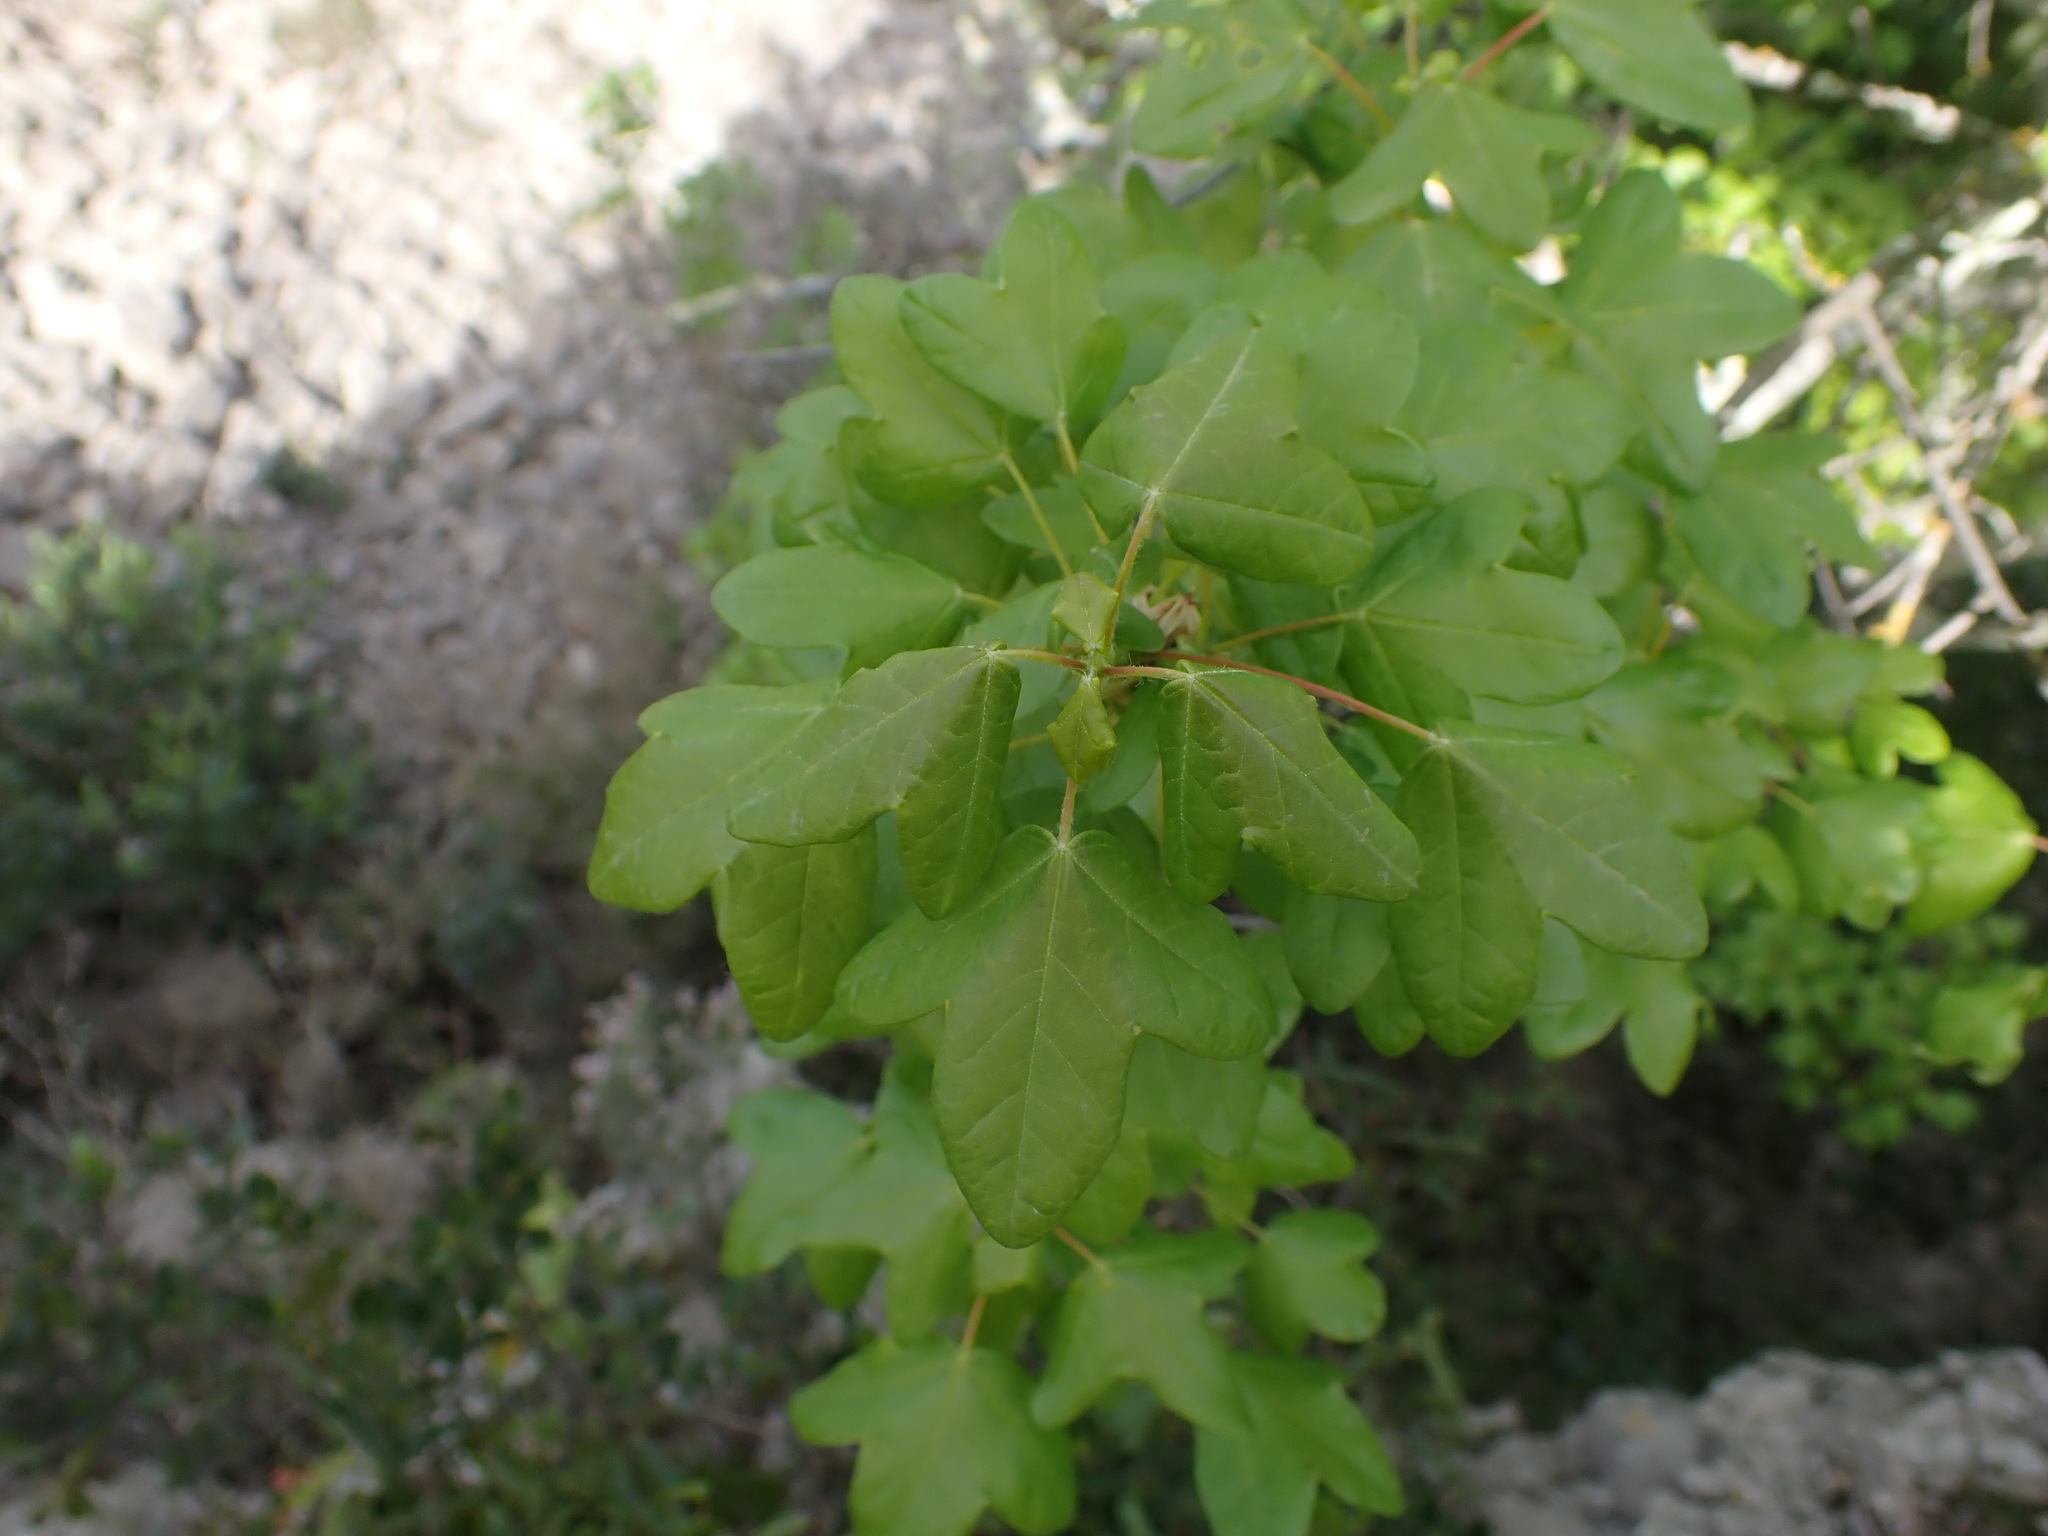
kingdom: Plantae
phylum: Tracheophyta
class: Magnoliopsida
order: Sapindales
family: Sapindaceae
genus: Acer
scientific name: Acer monspessulanum
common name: Montpellier maple
